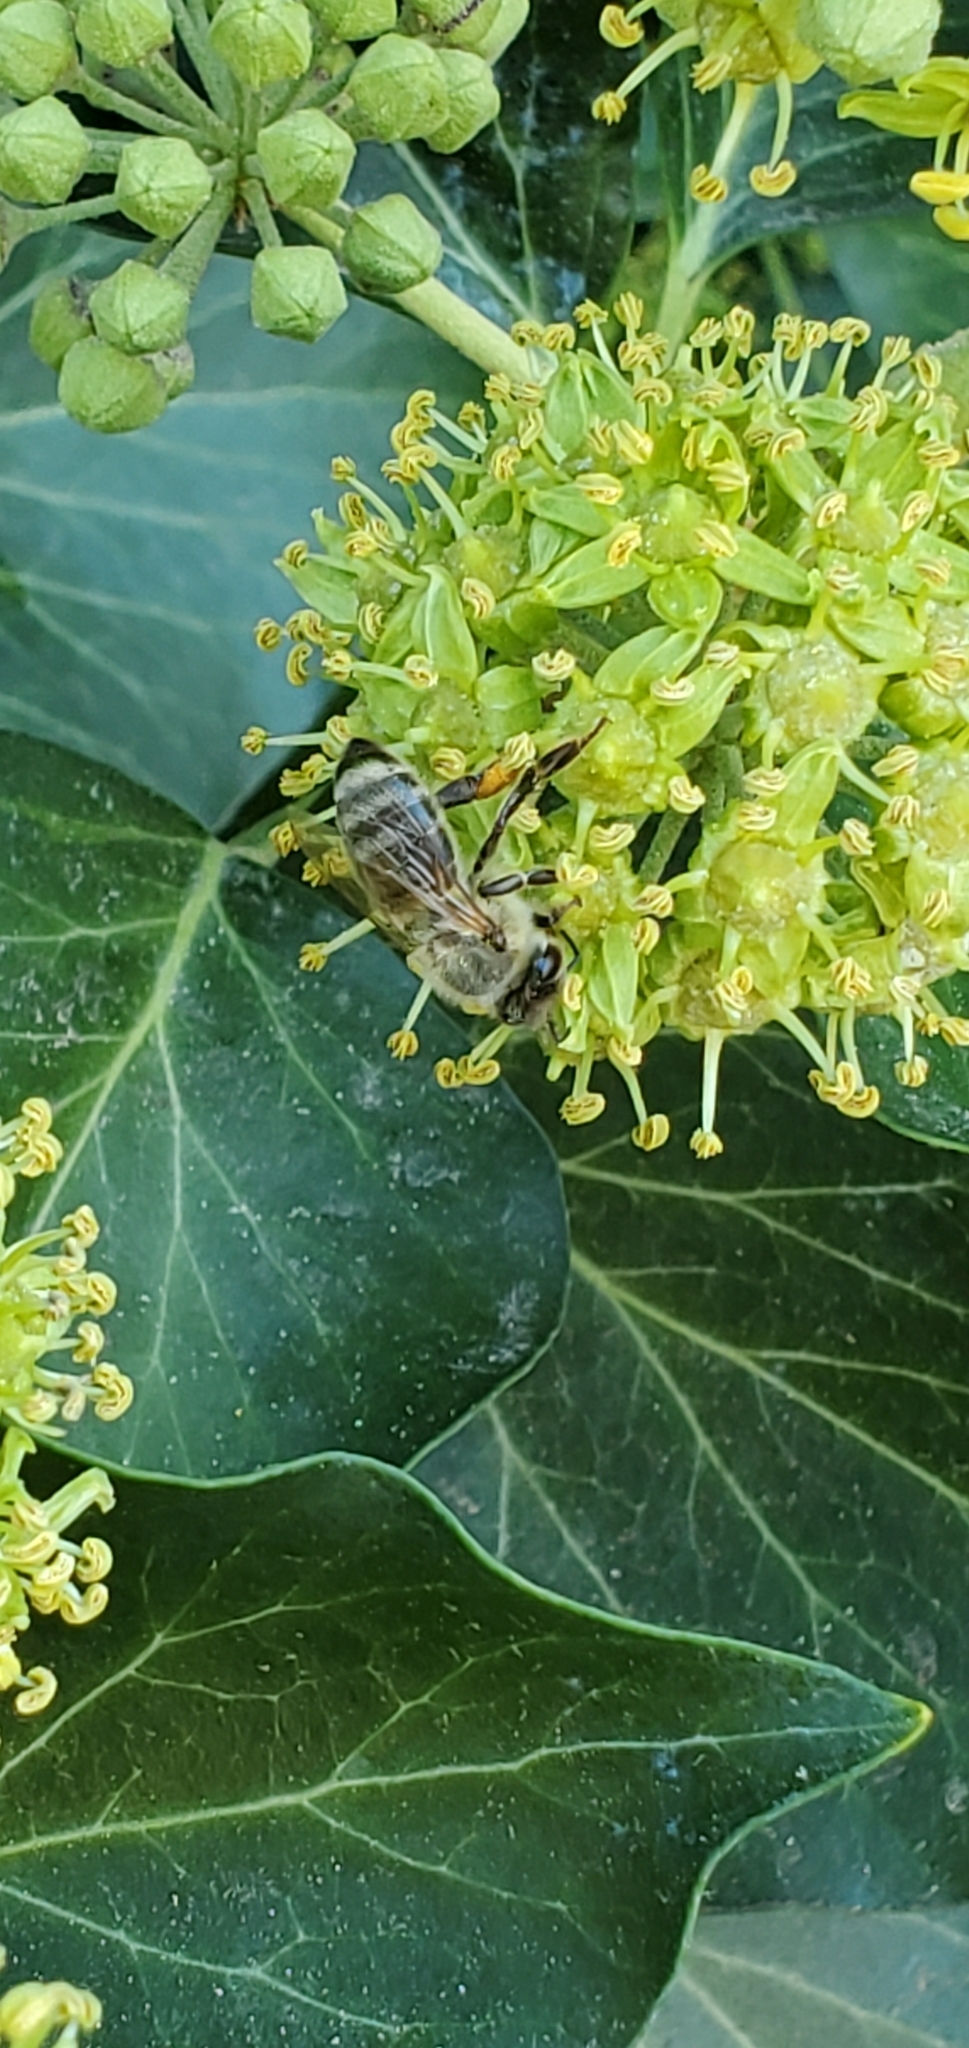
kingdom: Animalia
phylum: Arthropoda
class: Insecta
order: Hymenoptera
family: Apidae
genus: Apis
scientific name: Apis mellifera
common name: Honey bee
